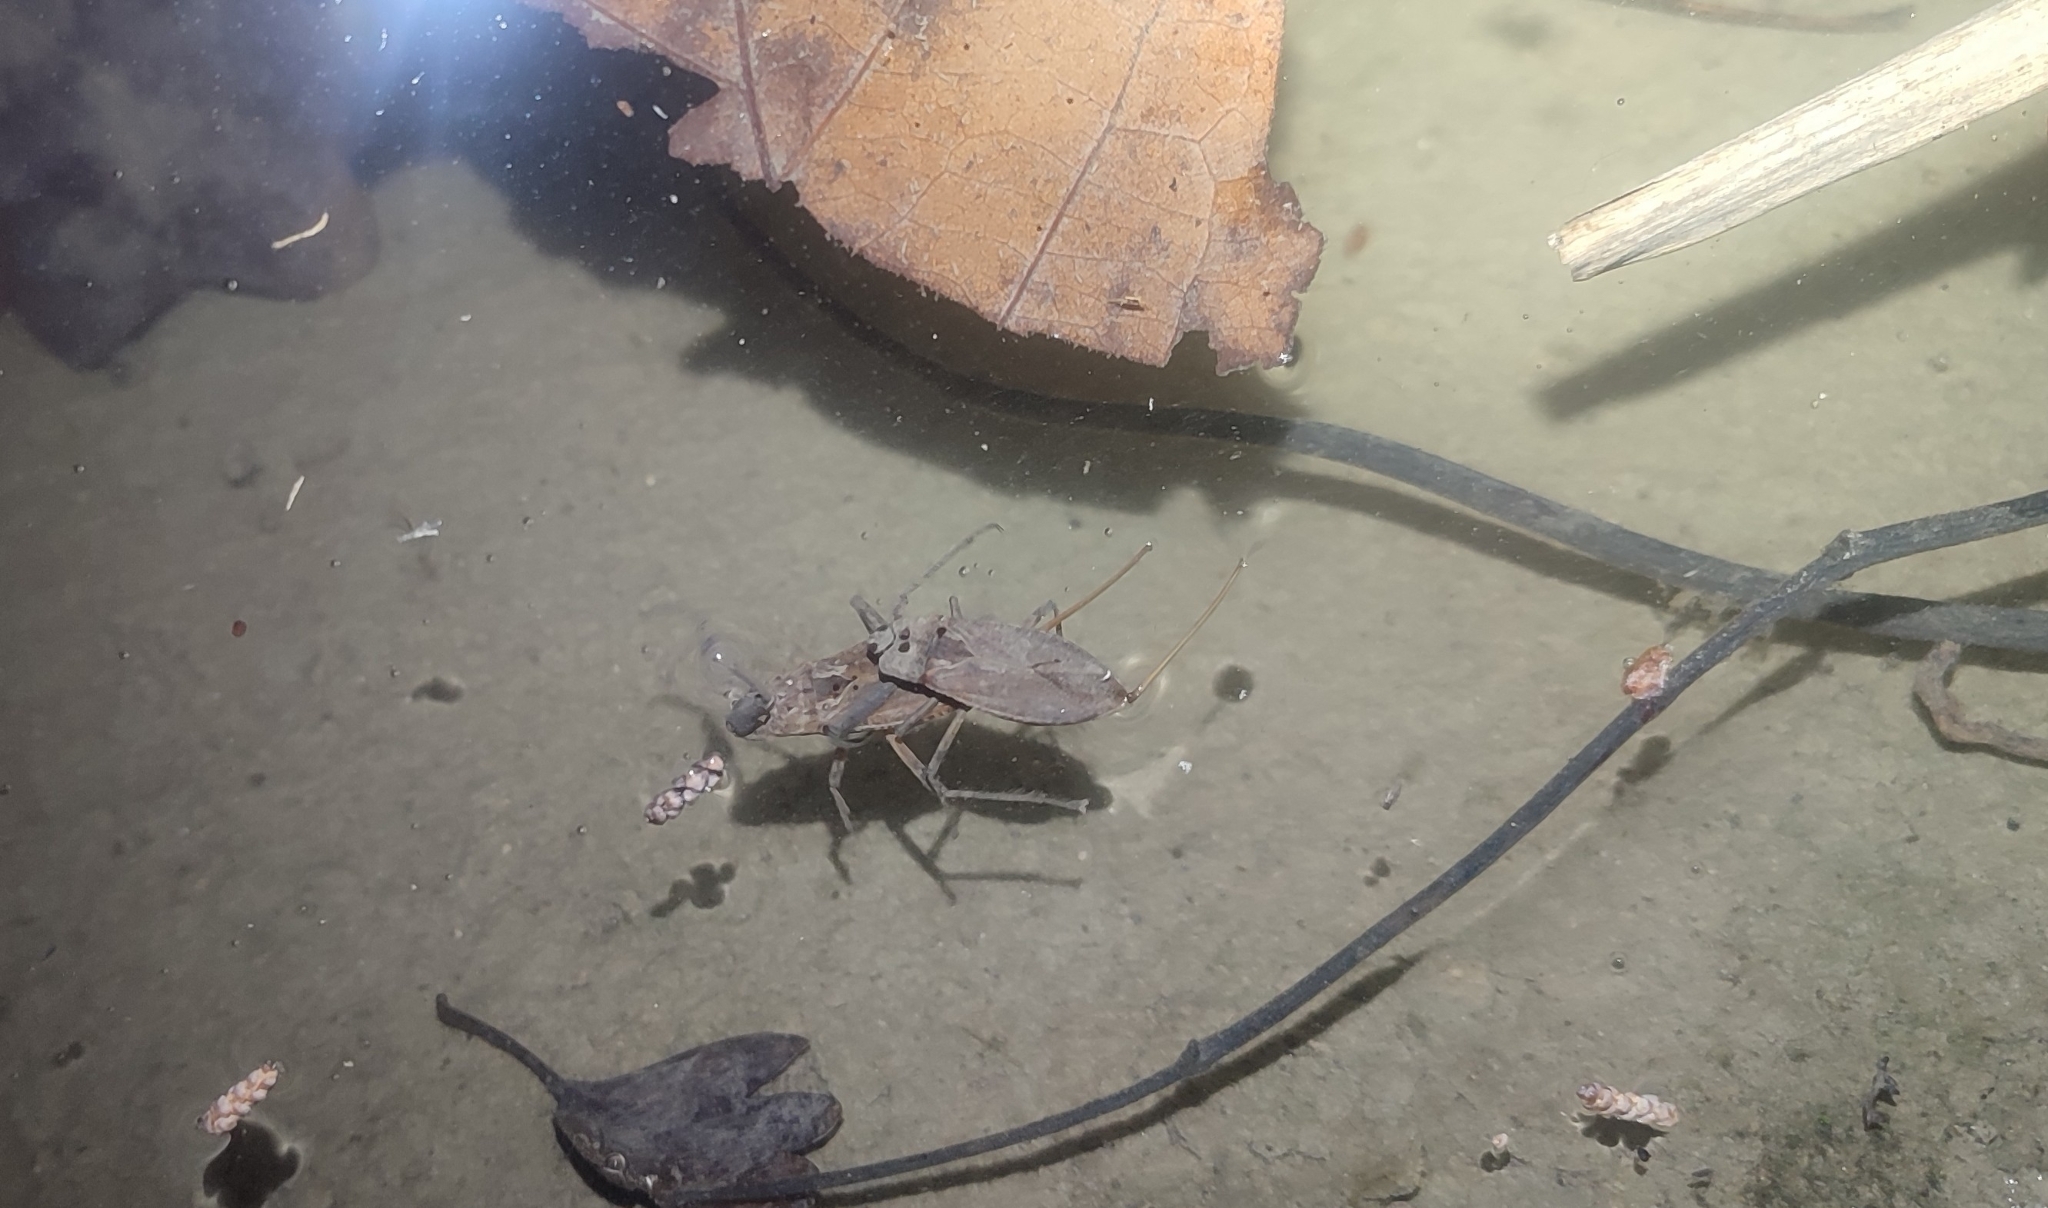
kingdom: Animalia
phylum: Arthropoda
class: Insecta
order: Hemiptera
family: Nepidae
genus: Nepa
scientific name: Nepa cinerea
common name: Water scorpion
